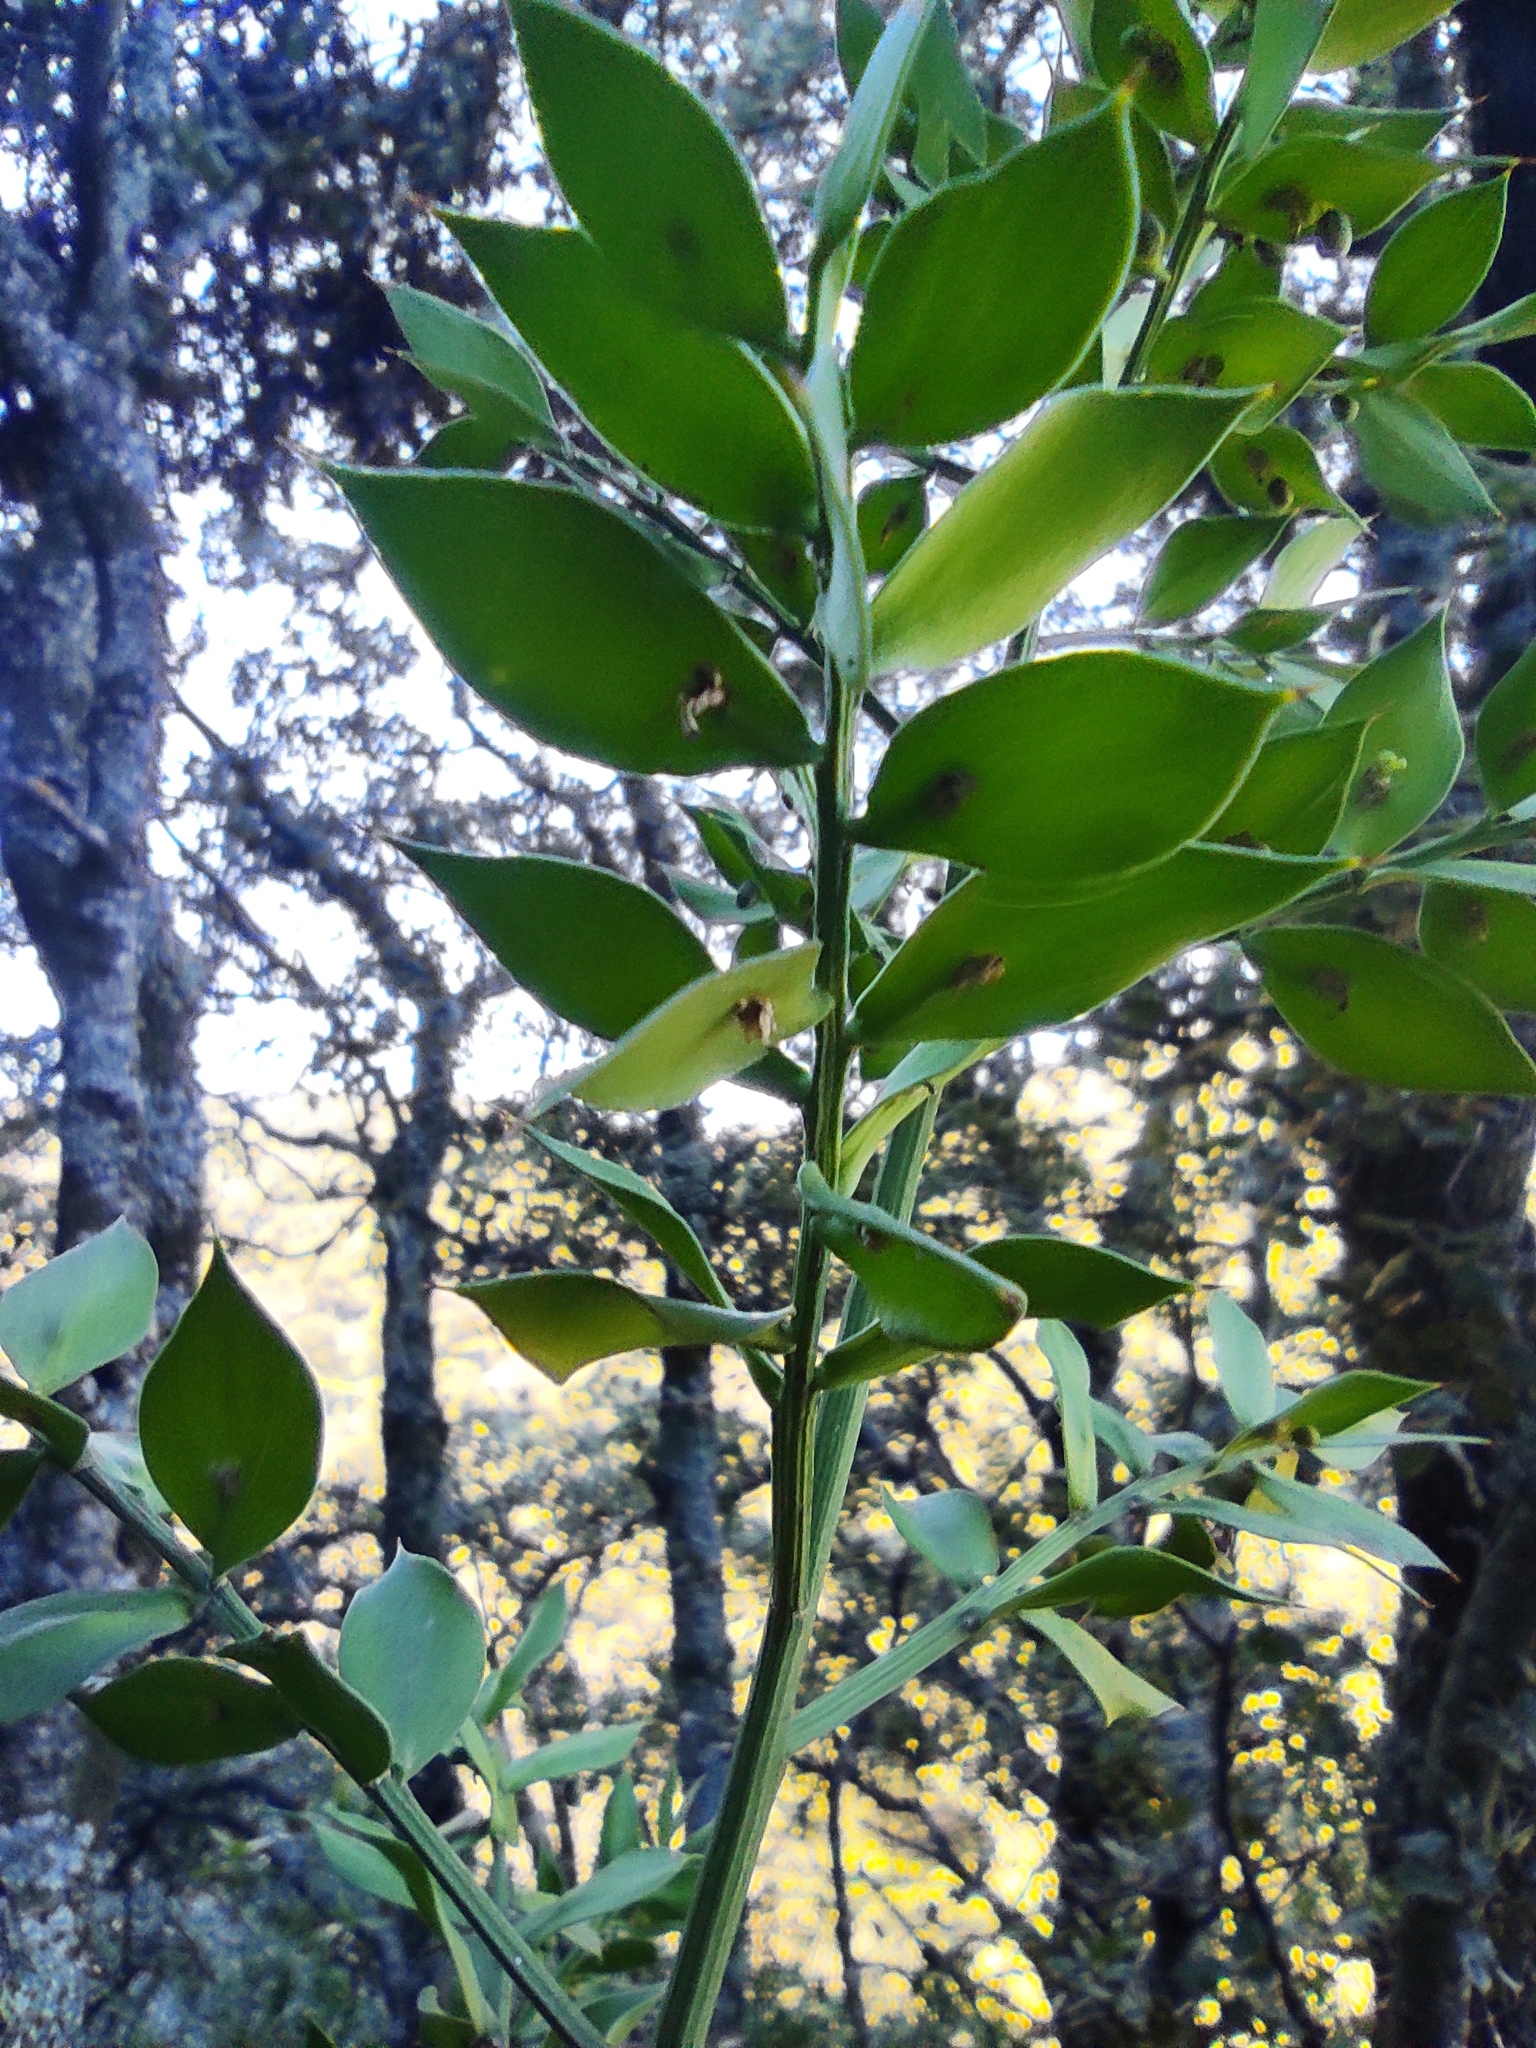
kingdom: Plantae
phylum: Tracheophyta
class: Liliopsida
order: Asparagales
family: Asparagaceae
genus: Ruscus
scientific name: Ruscus aculeatus
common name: Butcher's-broom
